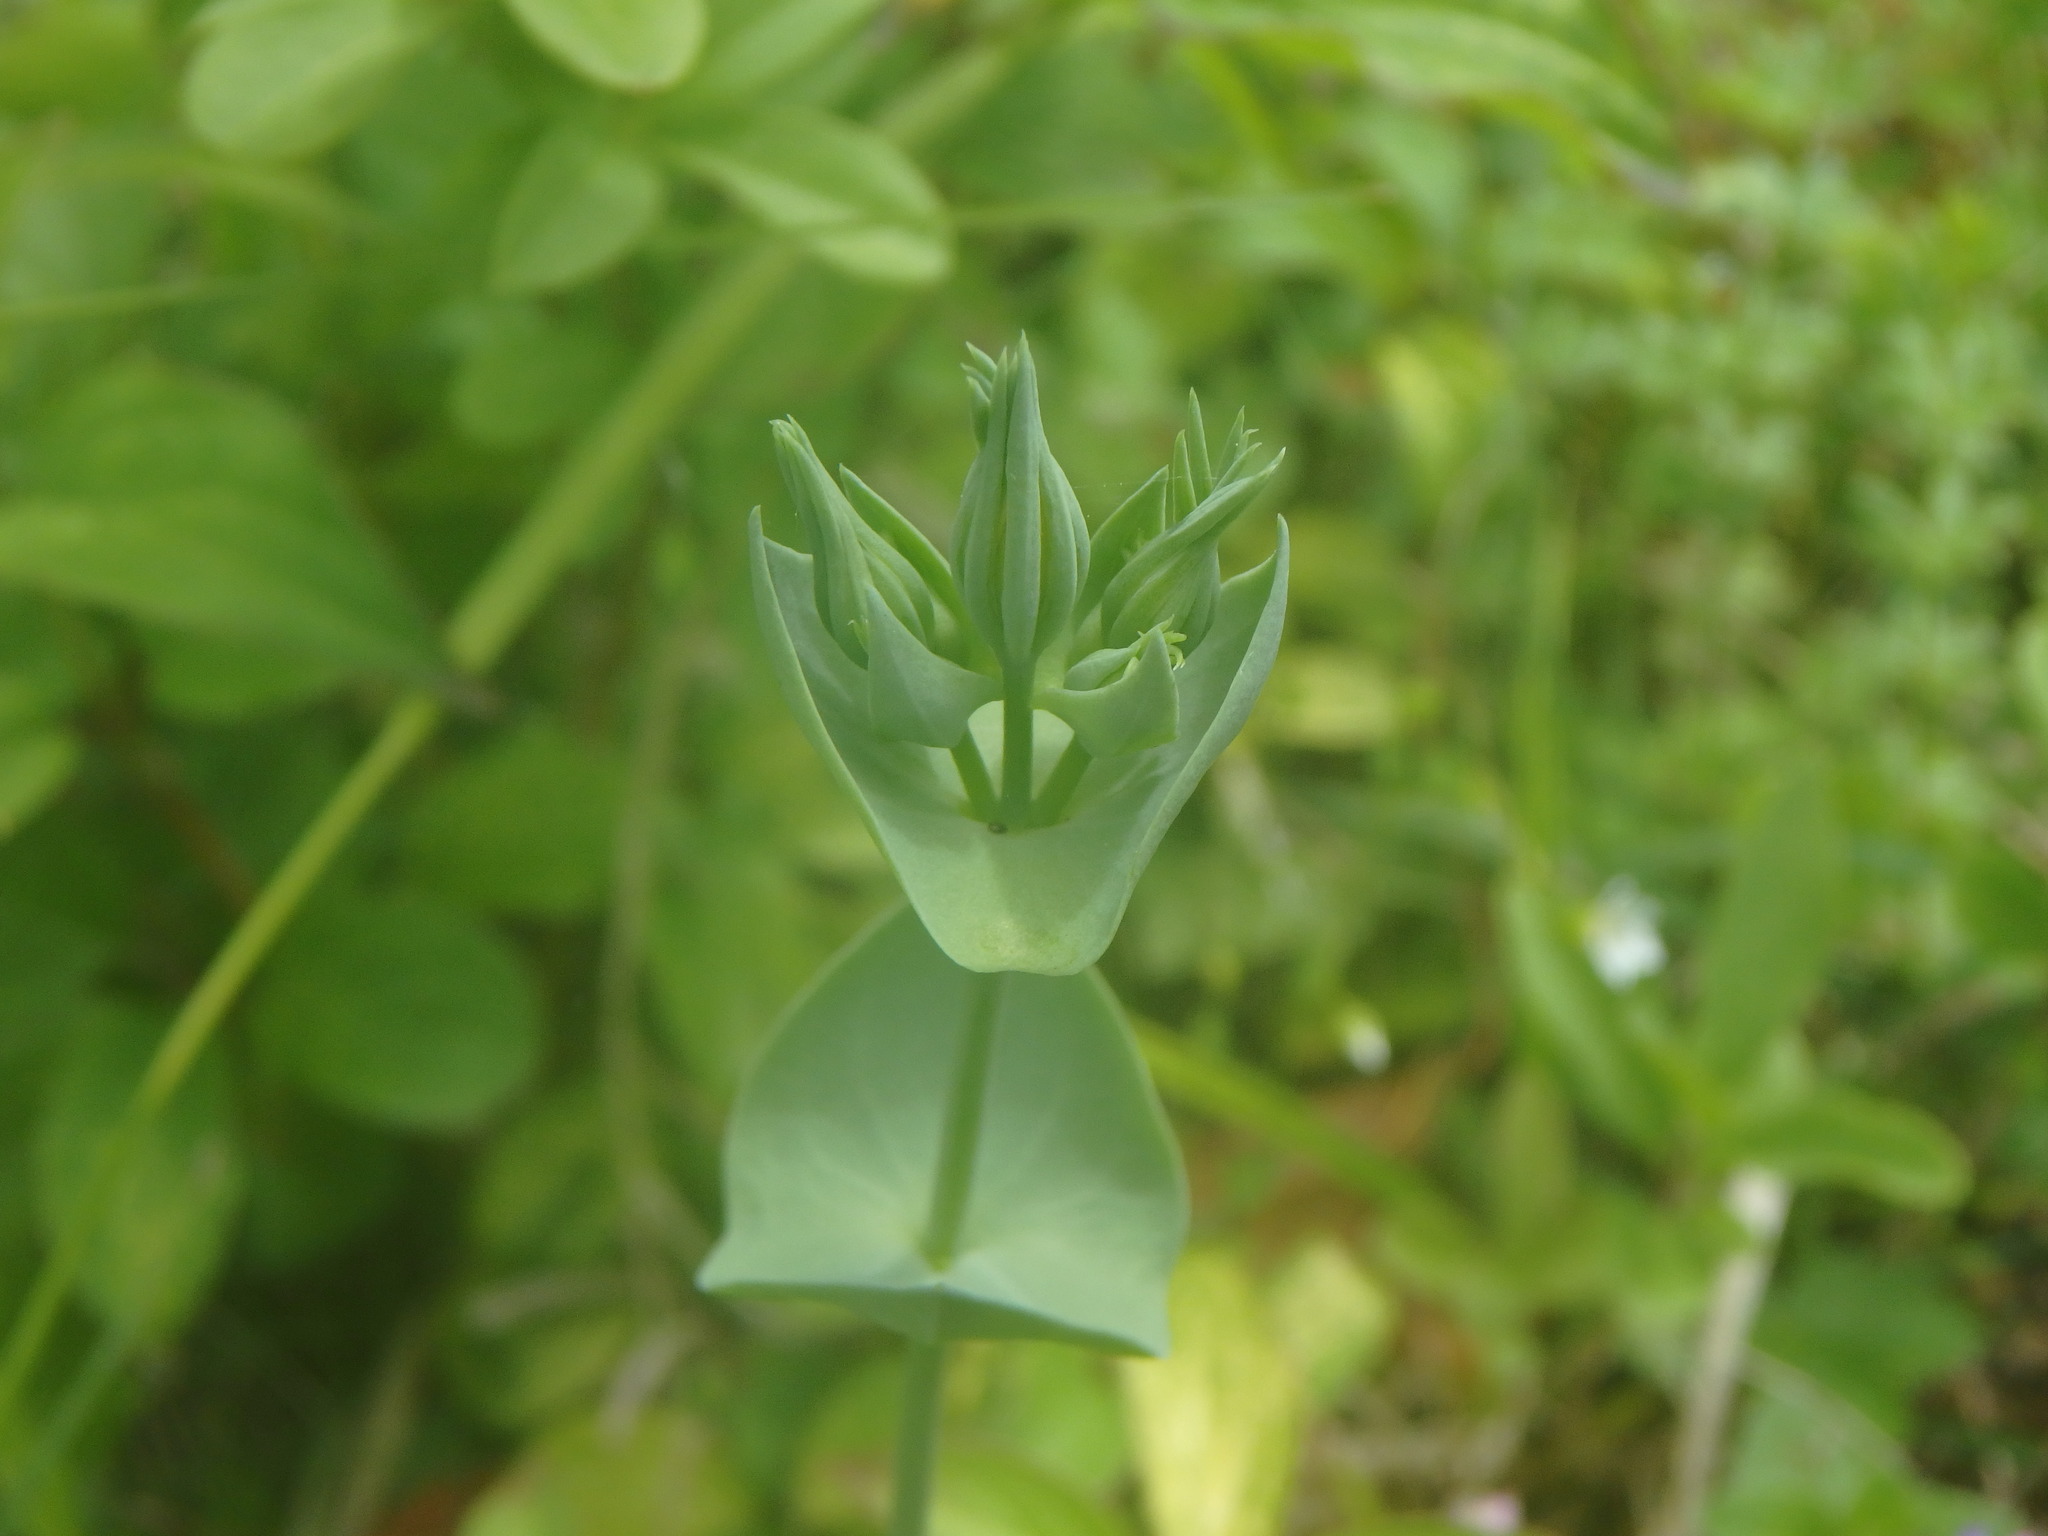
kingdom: Plantae
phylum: Tracheophyta
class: Magnoliopsida
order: Gentianales
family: Gentianaceae
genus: Blackstonia
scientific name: Blackstonia perfoliata
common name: Yellow-wort
